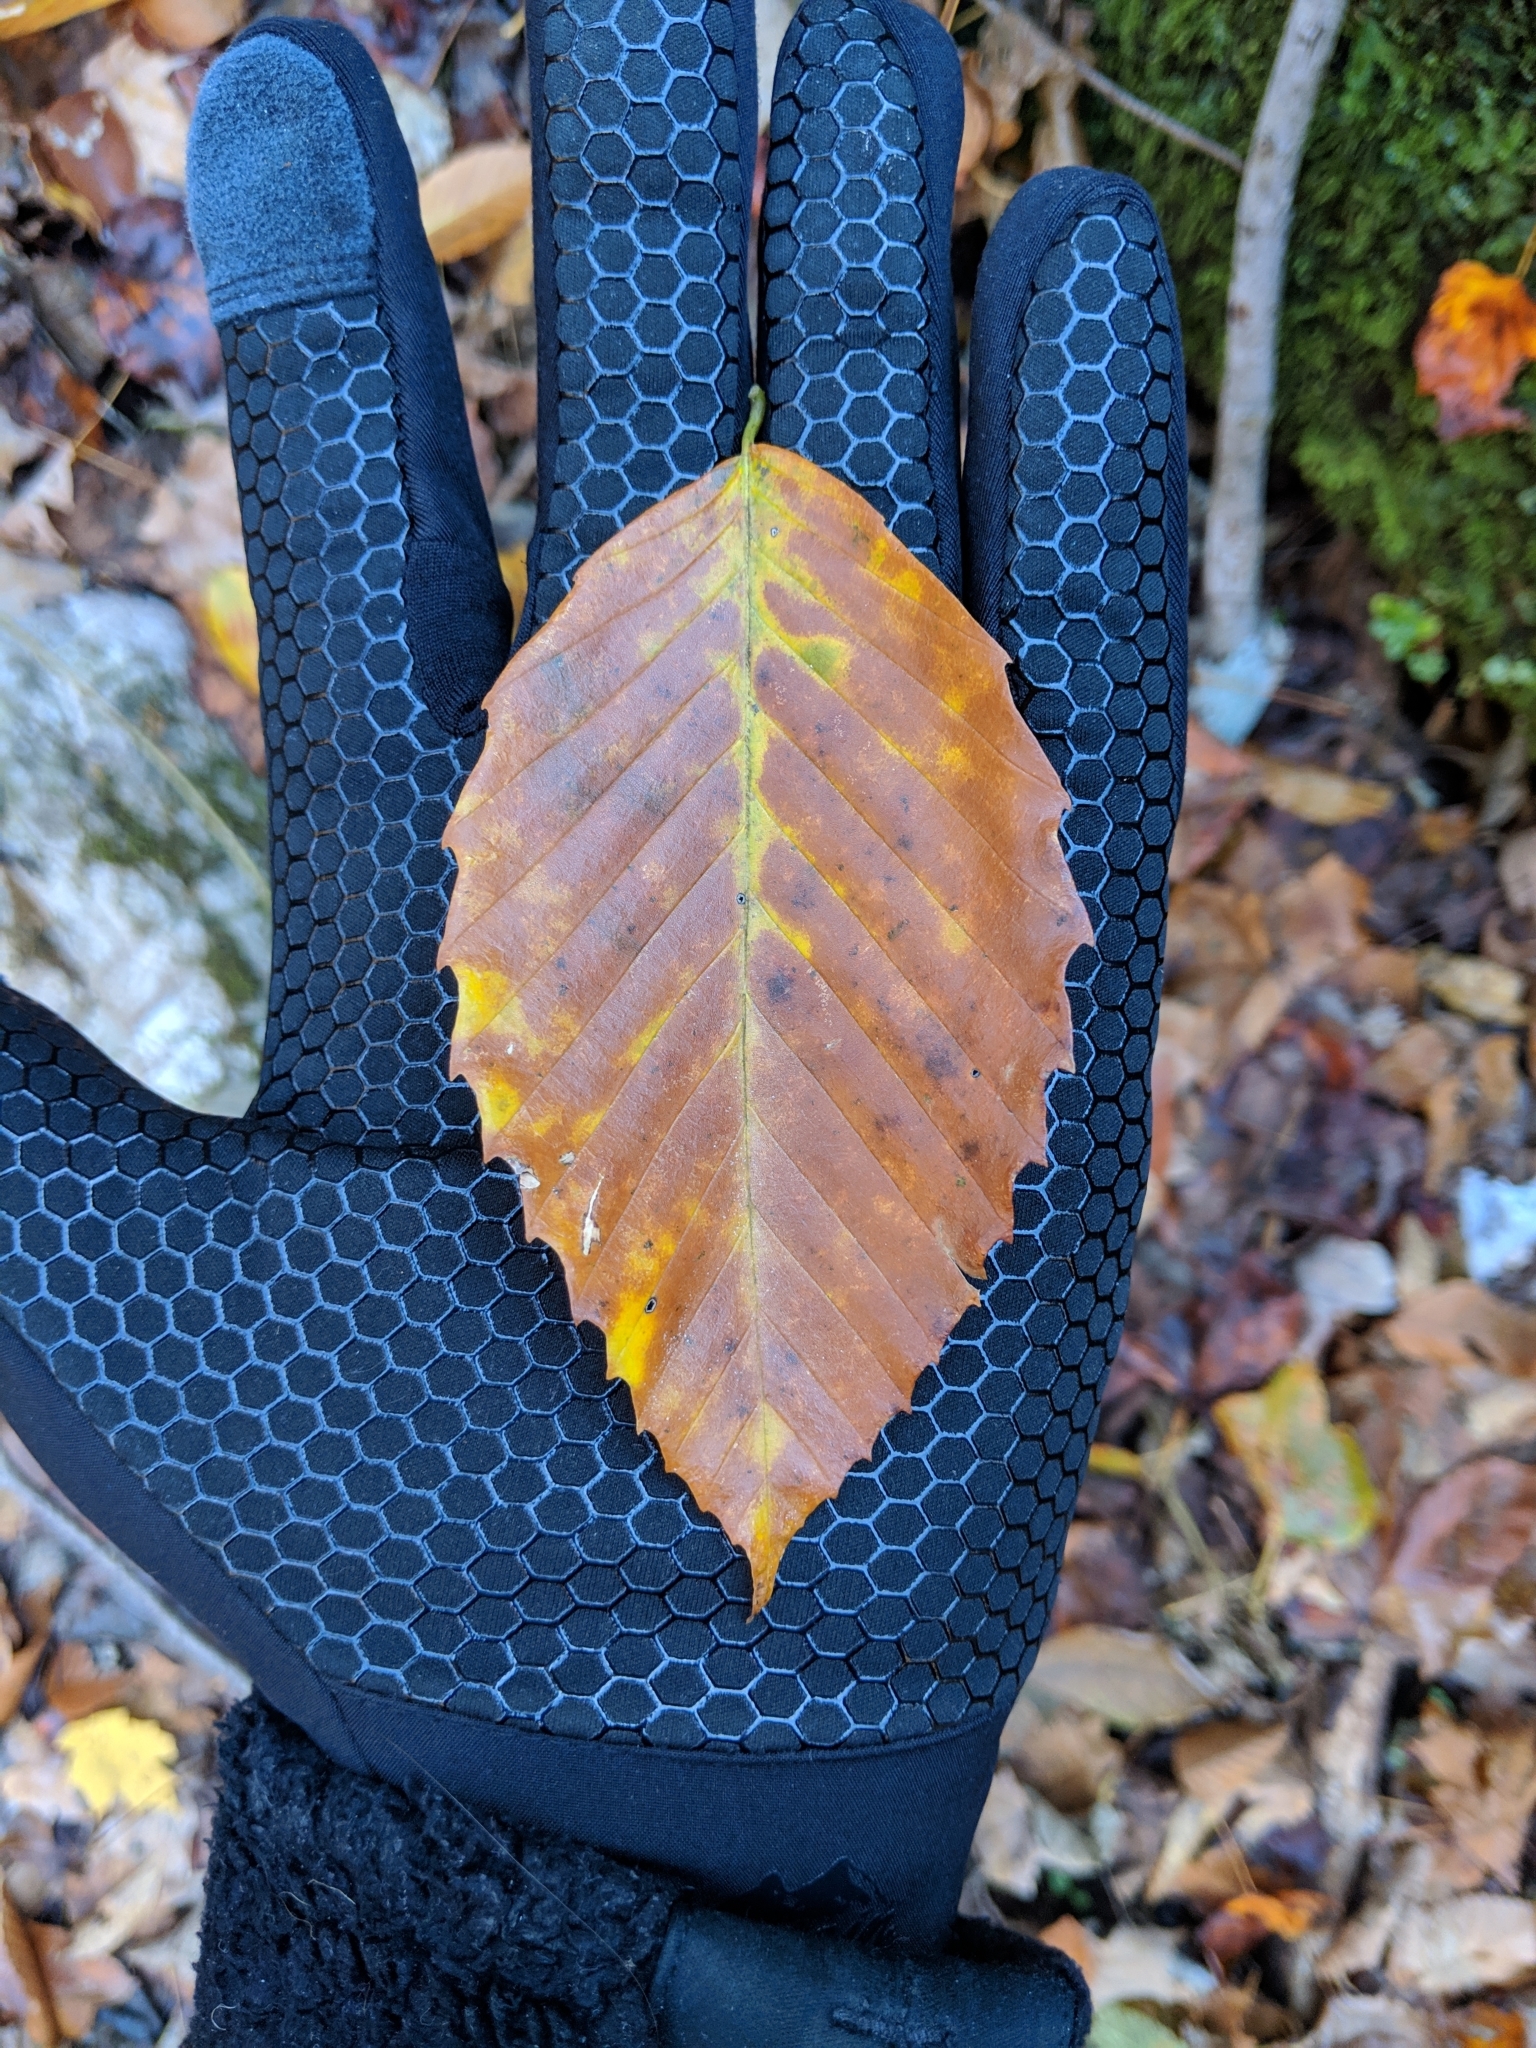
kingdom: Plantae
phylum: Tracheophyta
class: Magnoliopsida
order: Fagales
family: Fagaceae
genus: Fagus
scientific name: Fagus grandifolia
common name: American beech
